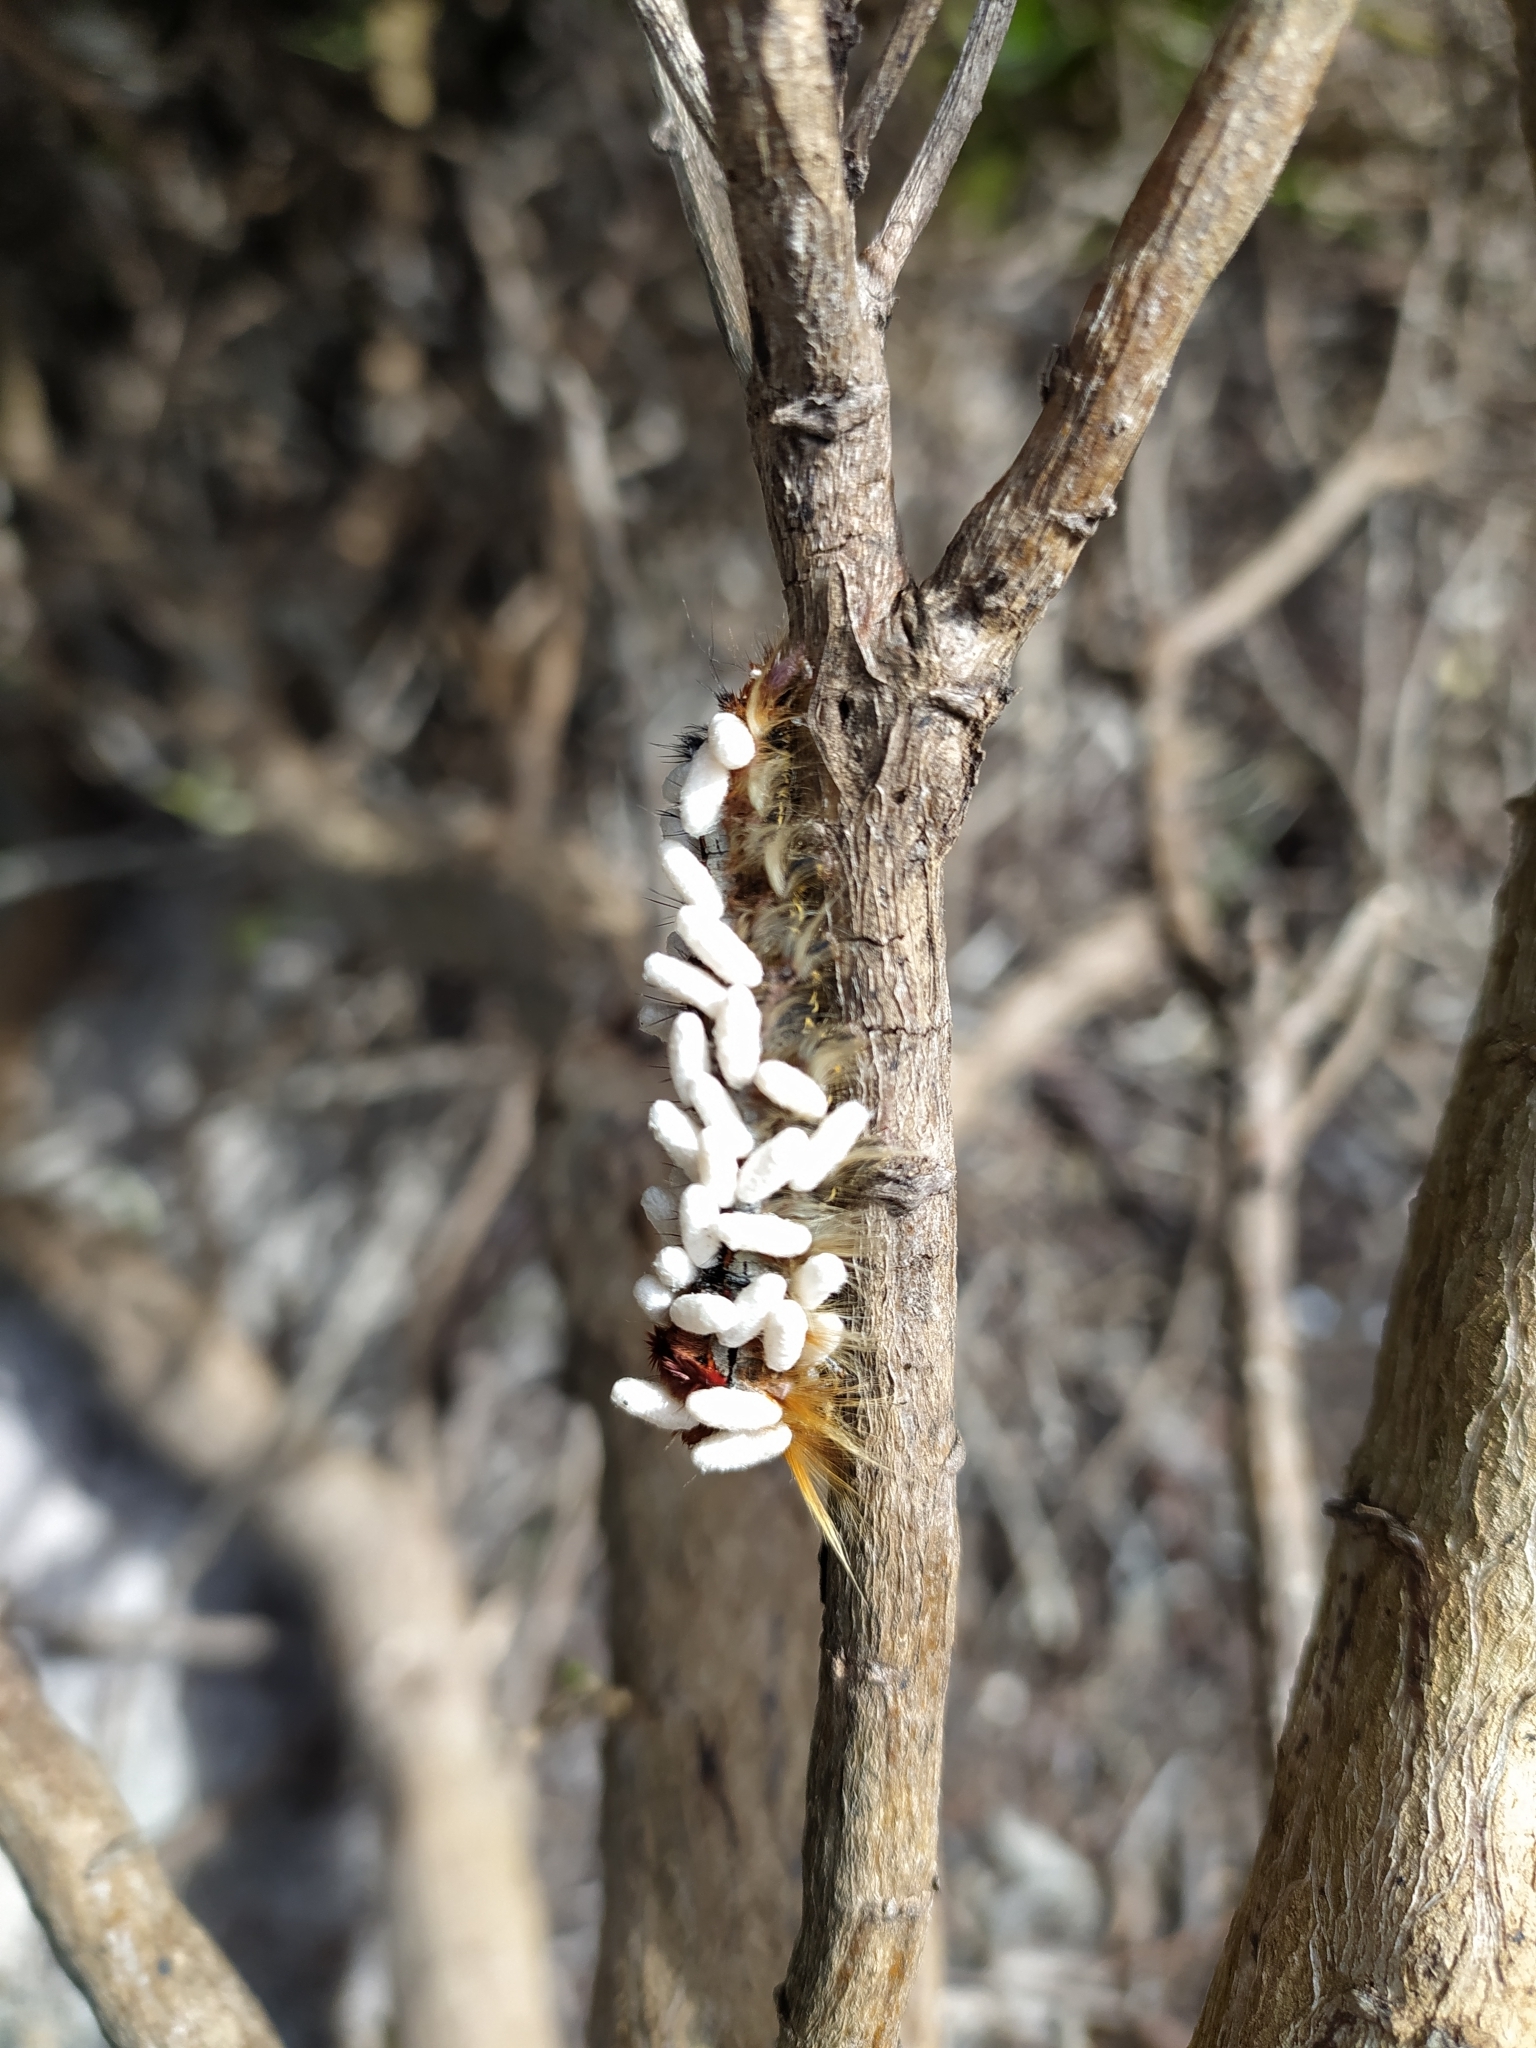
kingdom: Animalia
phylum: Arthropoda
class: Insecta
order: Lepidoptera
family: Lasiocampidae
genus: Eutricha
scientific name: Eutricha capensis
